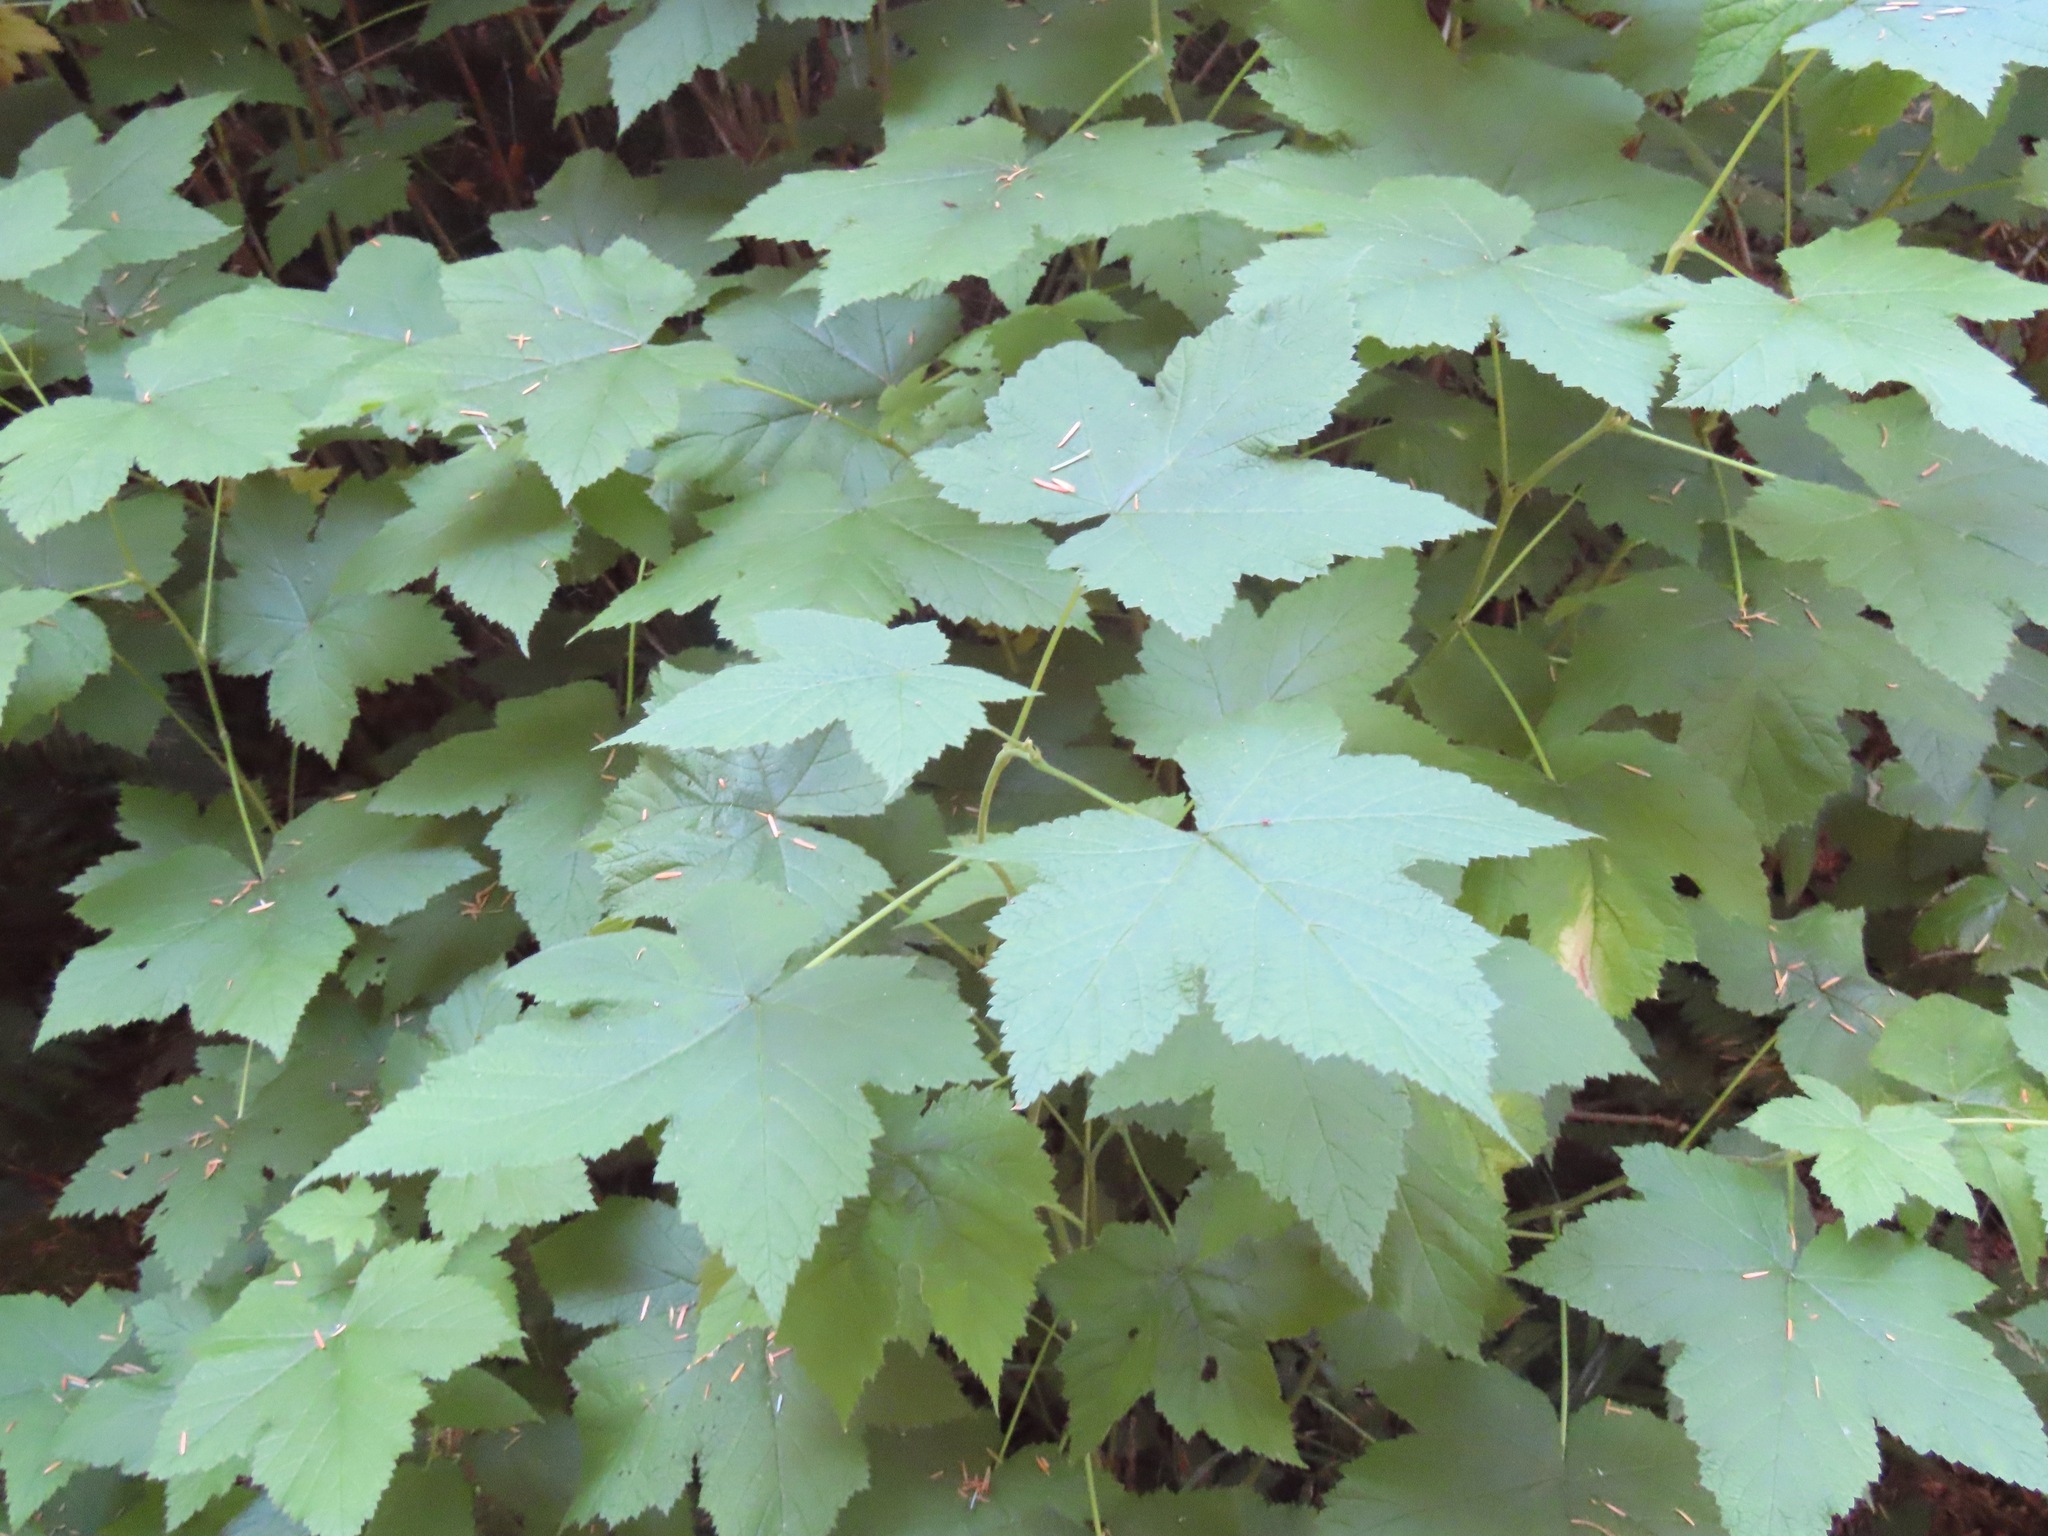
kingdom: Plantae
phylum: Tracheophyta
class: Magnoliopsida
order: Rosales
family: Rosaceae
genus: Rubus
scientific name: Rubus parviflorus
